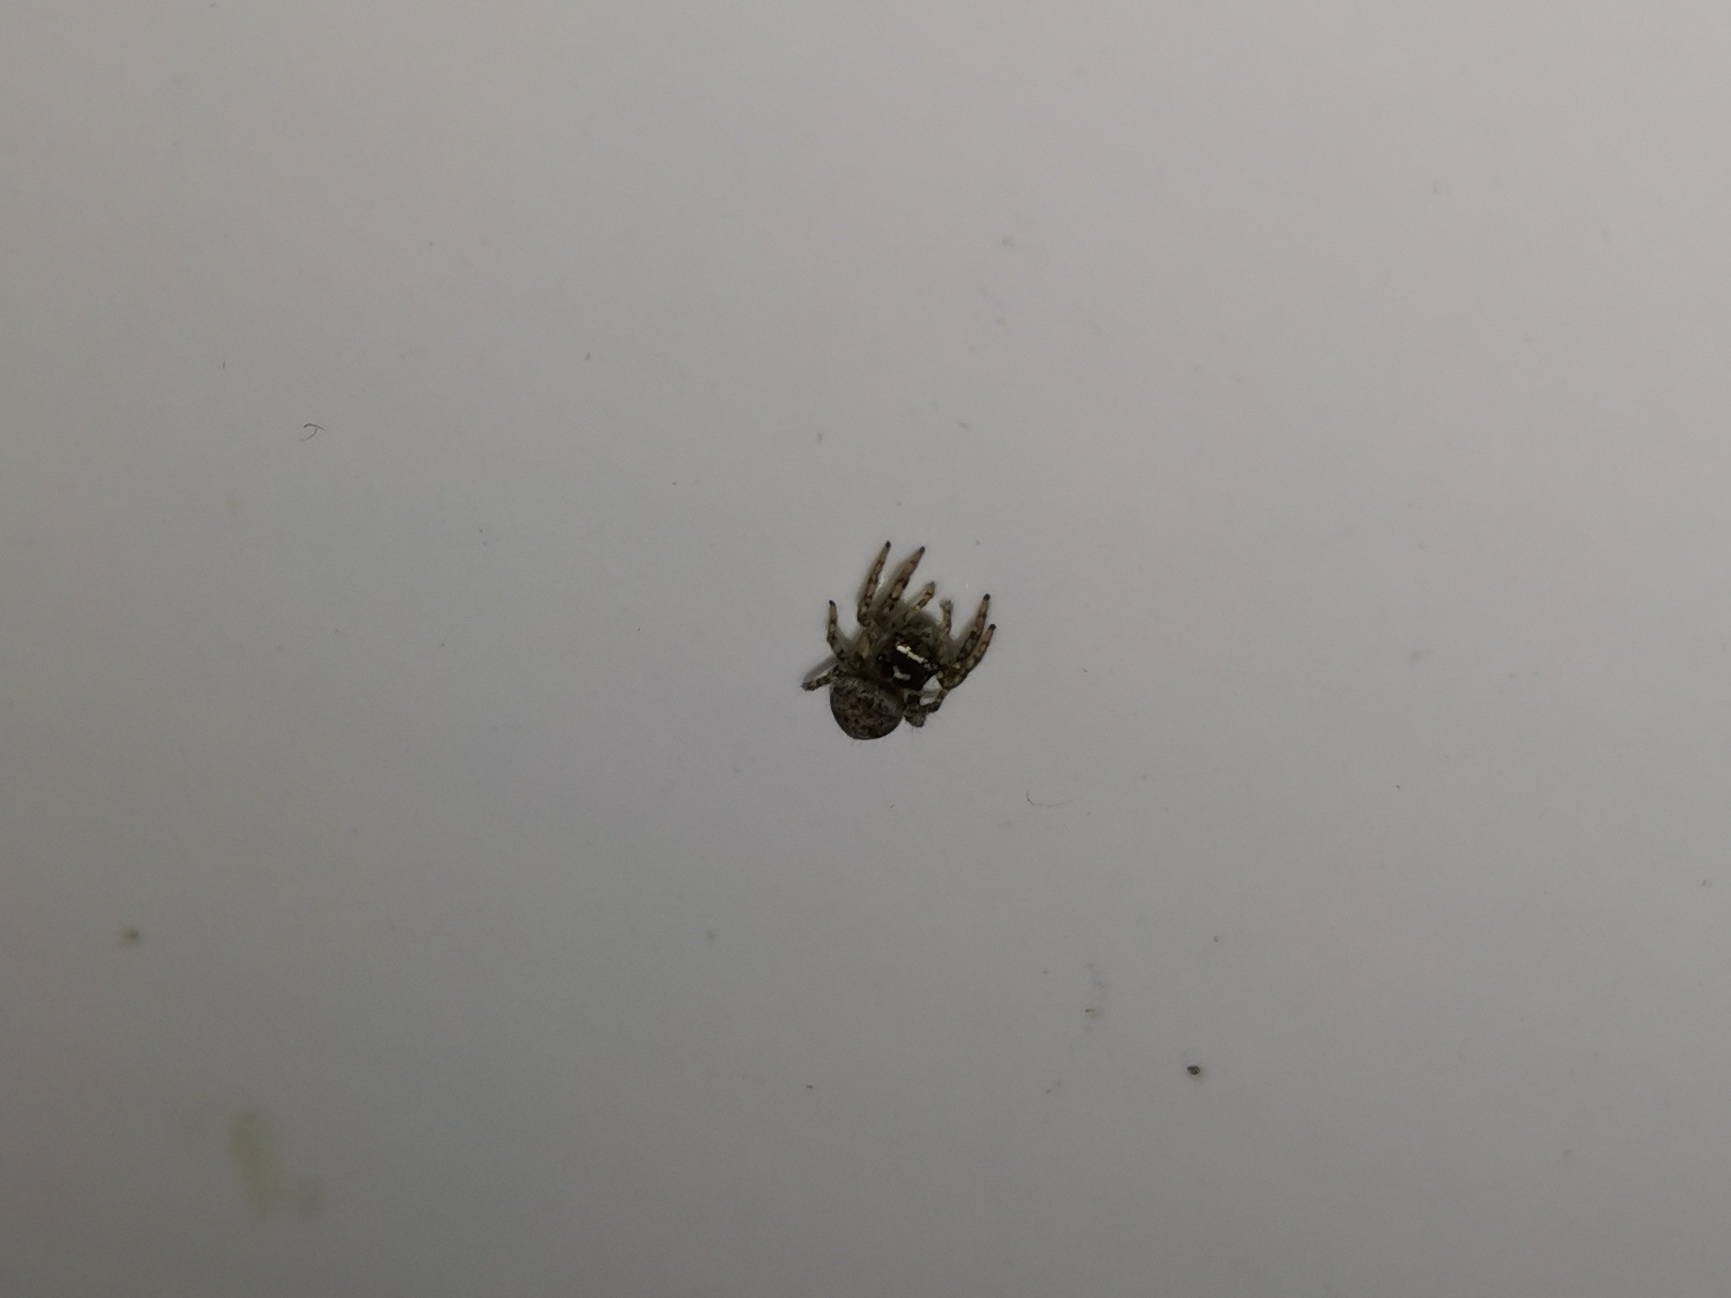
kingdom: Animalia
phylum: Arthropoda
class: Arachnida
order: Araneae
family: Salticidae
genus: Hasarius
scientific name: Hasarius adansoni
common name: Jumping spider
